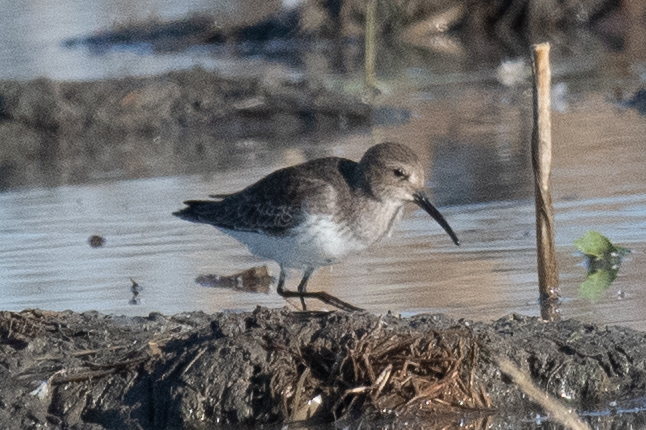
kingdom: Animalia
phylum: Chordata
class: Aves
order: Charadriiformes
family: Scolopacidae
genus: Calidris
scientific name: Calidris alpina
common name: Dunlin
